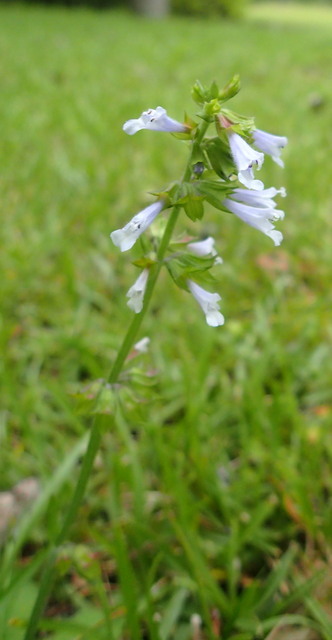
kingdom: Plantae
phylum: Tracheophyta
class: Magnoliopsida
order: Lamiales
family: Lamiaceae
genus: Salvia
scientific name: Salvia lyrata
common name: Cancerweed
